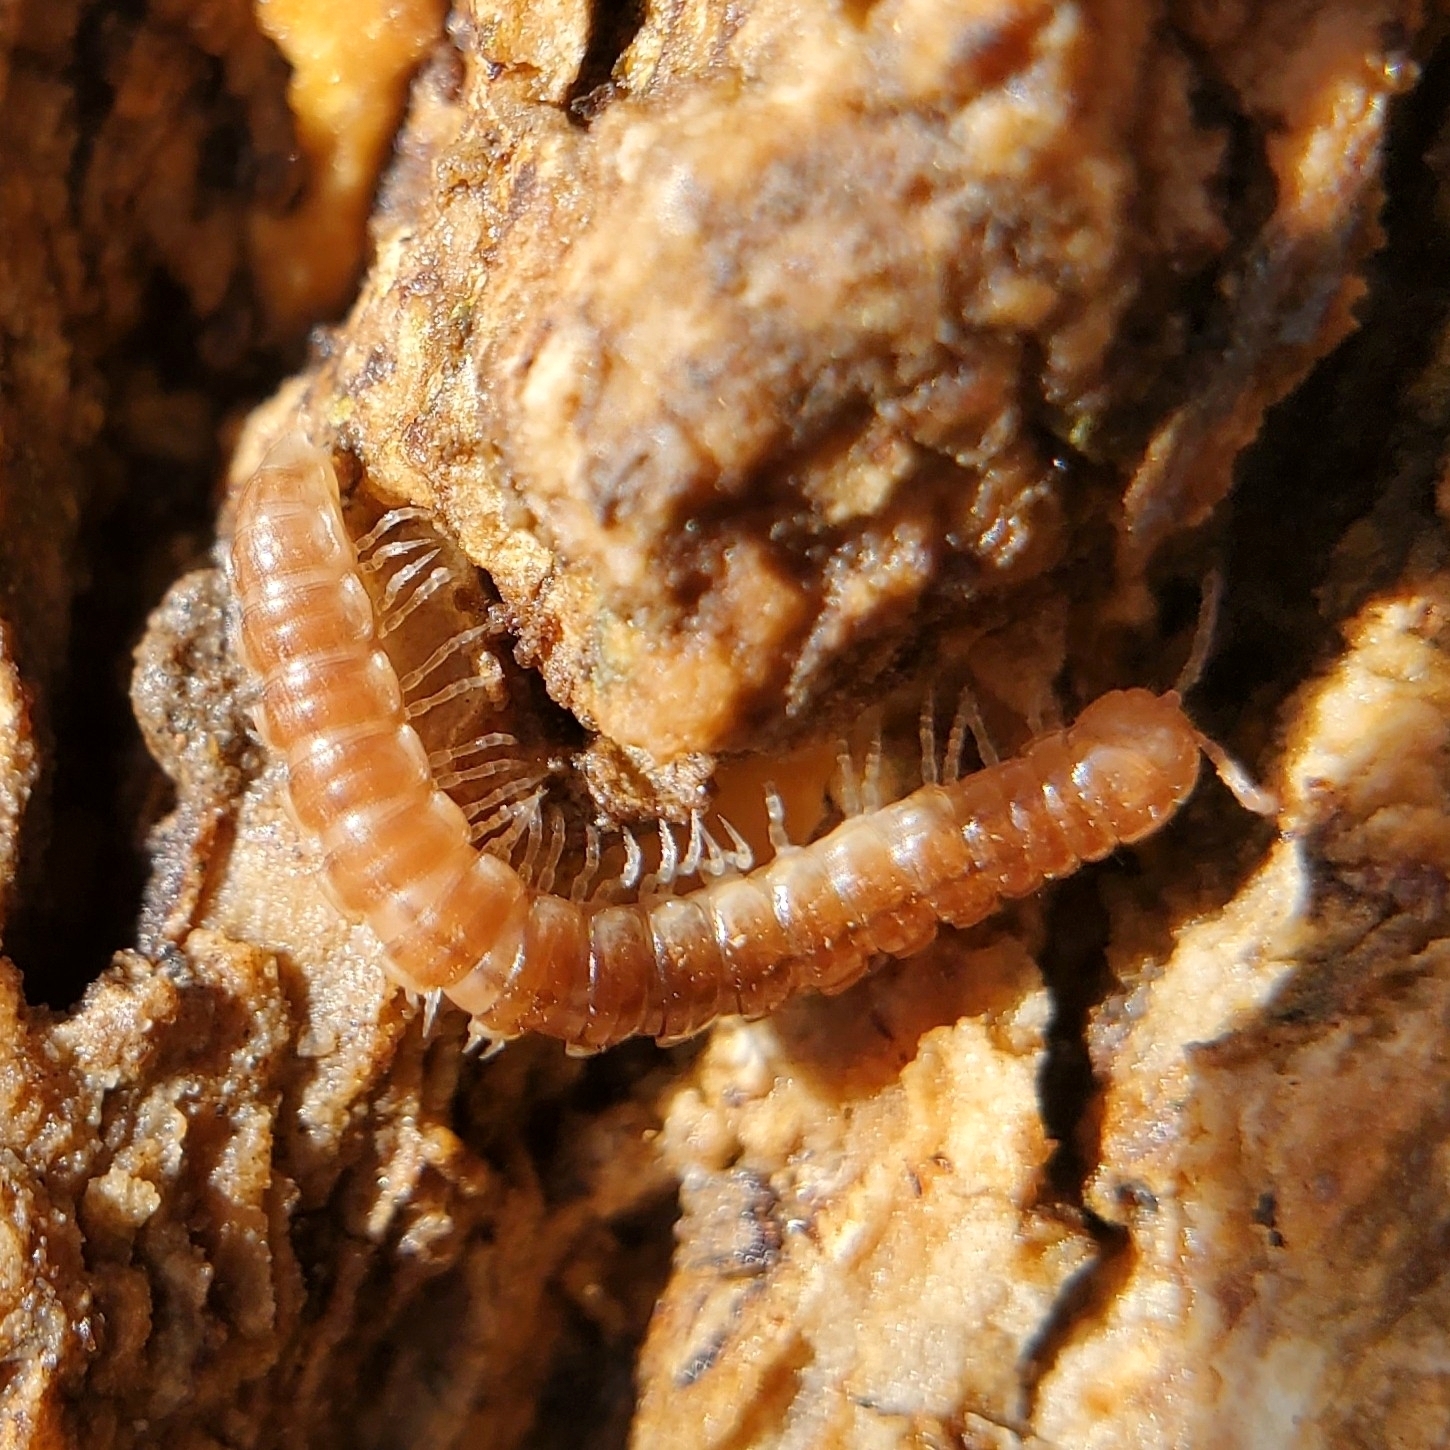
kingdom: Animalia
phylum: Arthropoda
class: Diplopoda
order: Polydesmida
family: Paradoxosomatidae
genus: Oxidus
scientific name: Oxidus gracilis
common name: Greenhouse millipede
